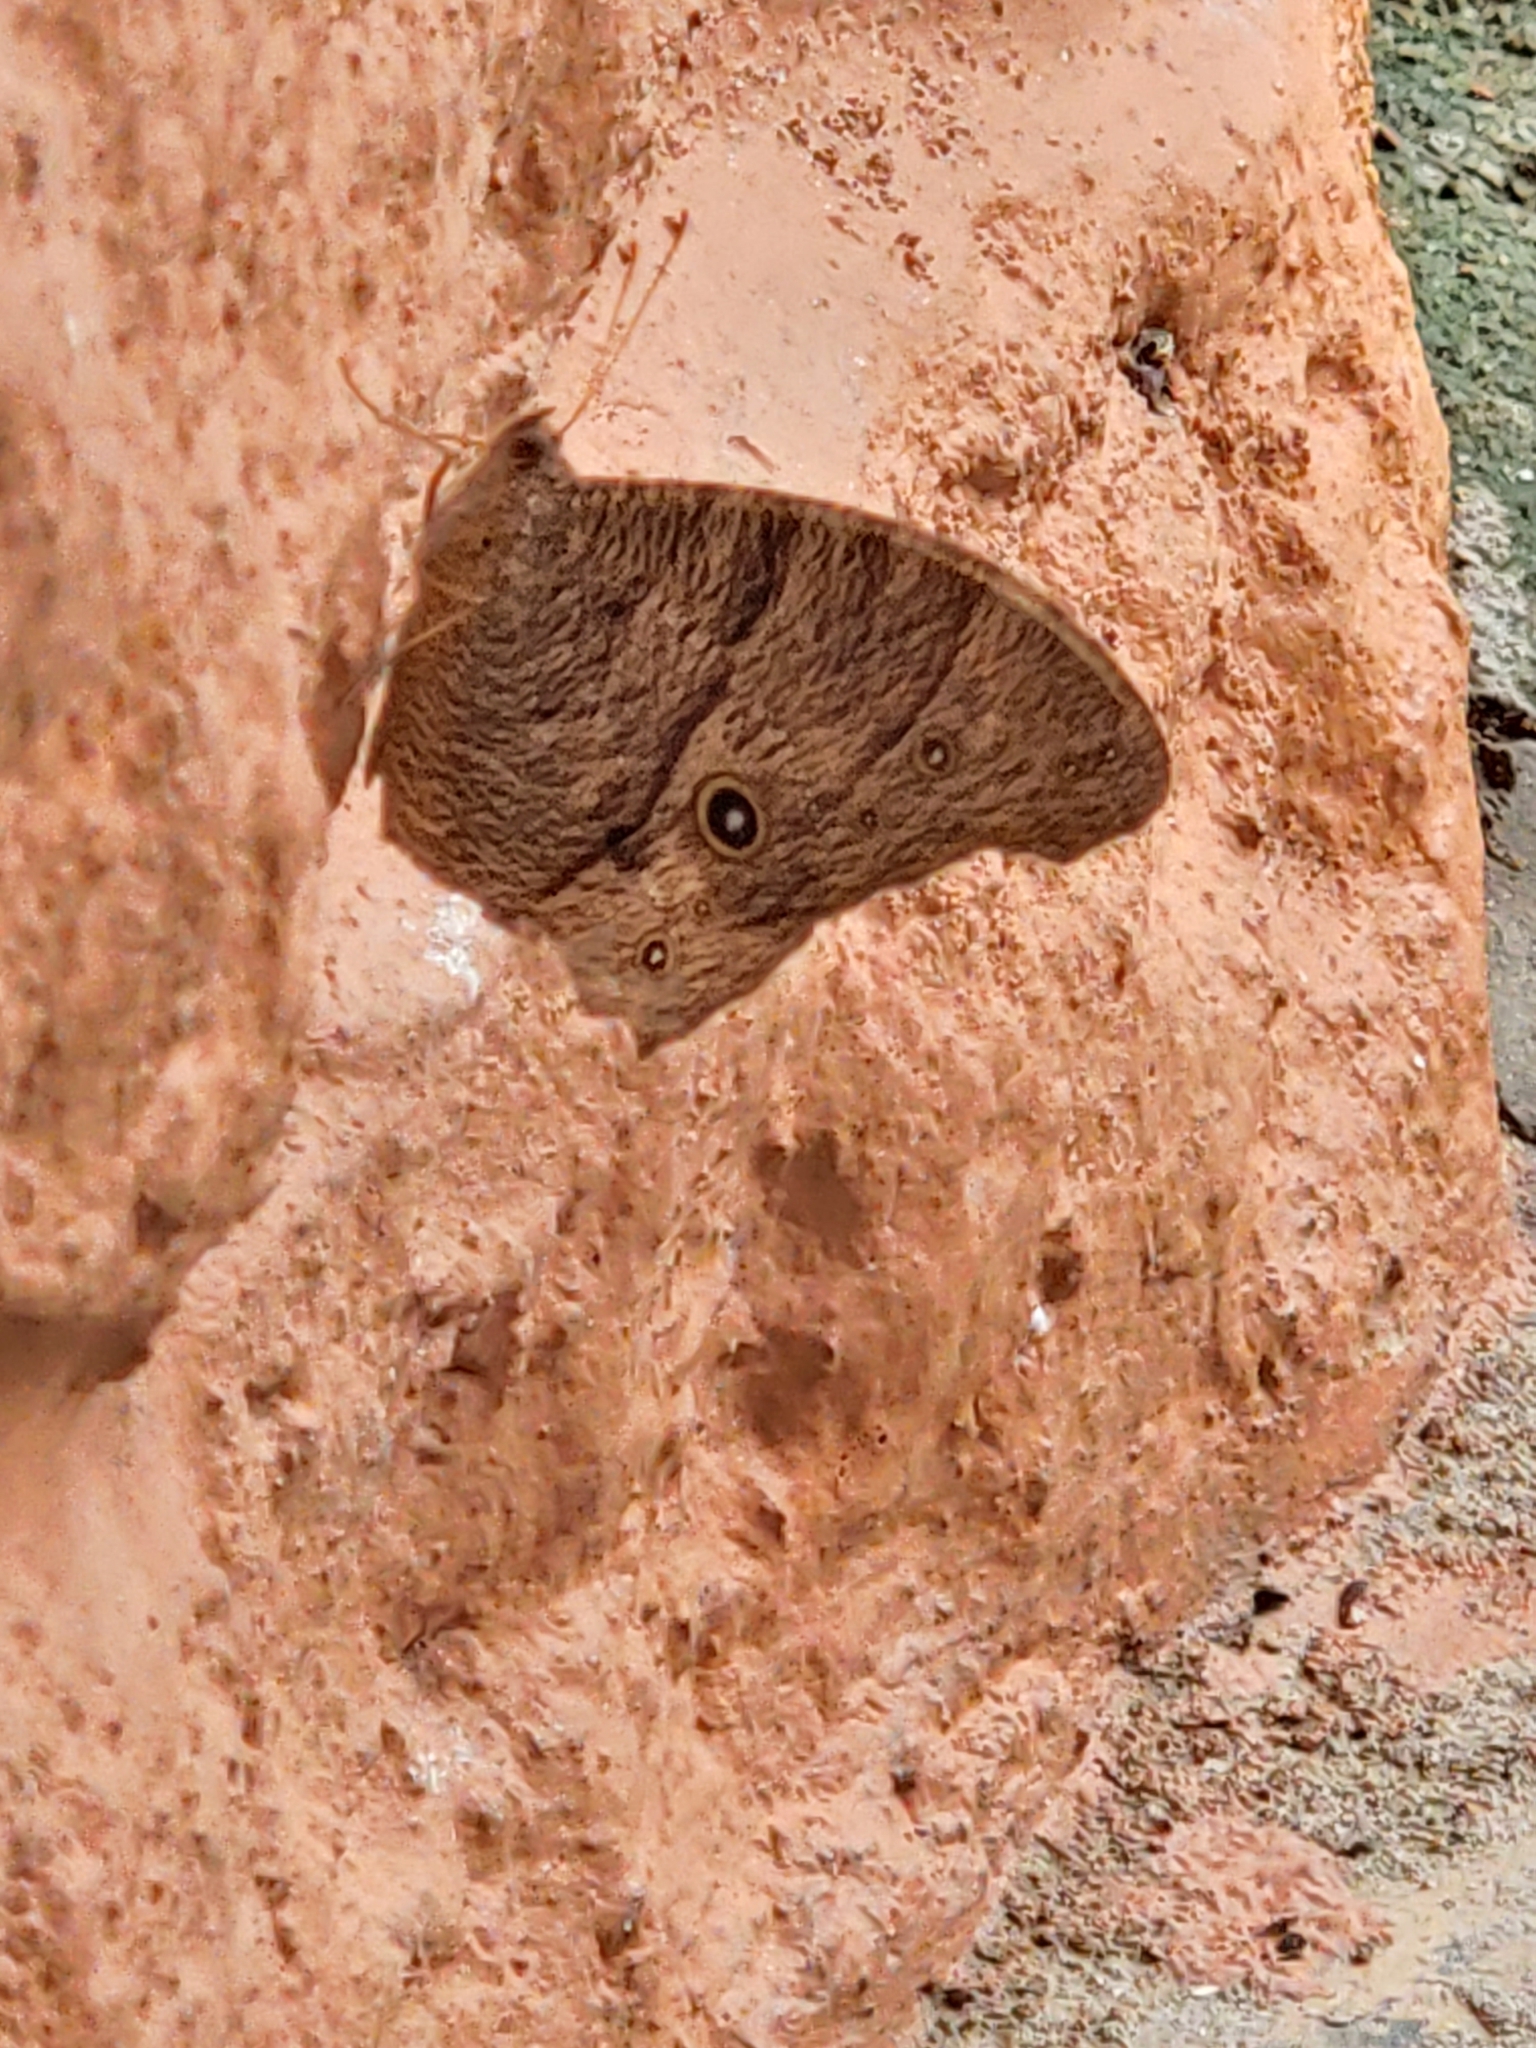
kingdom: Animalia
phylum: Arthropoda
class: Insecta
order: Lepidoptera
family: Nymphalidae
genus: Melanitis
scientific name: Melanitis leda
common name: Twilight brown
